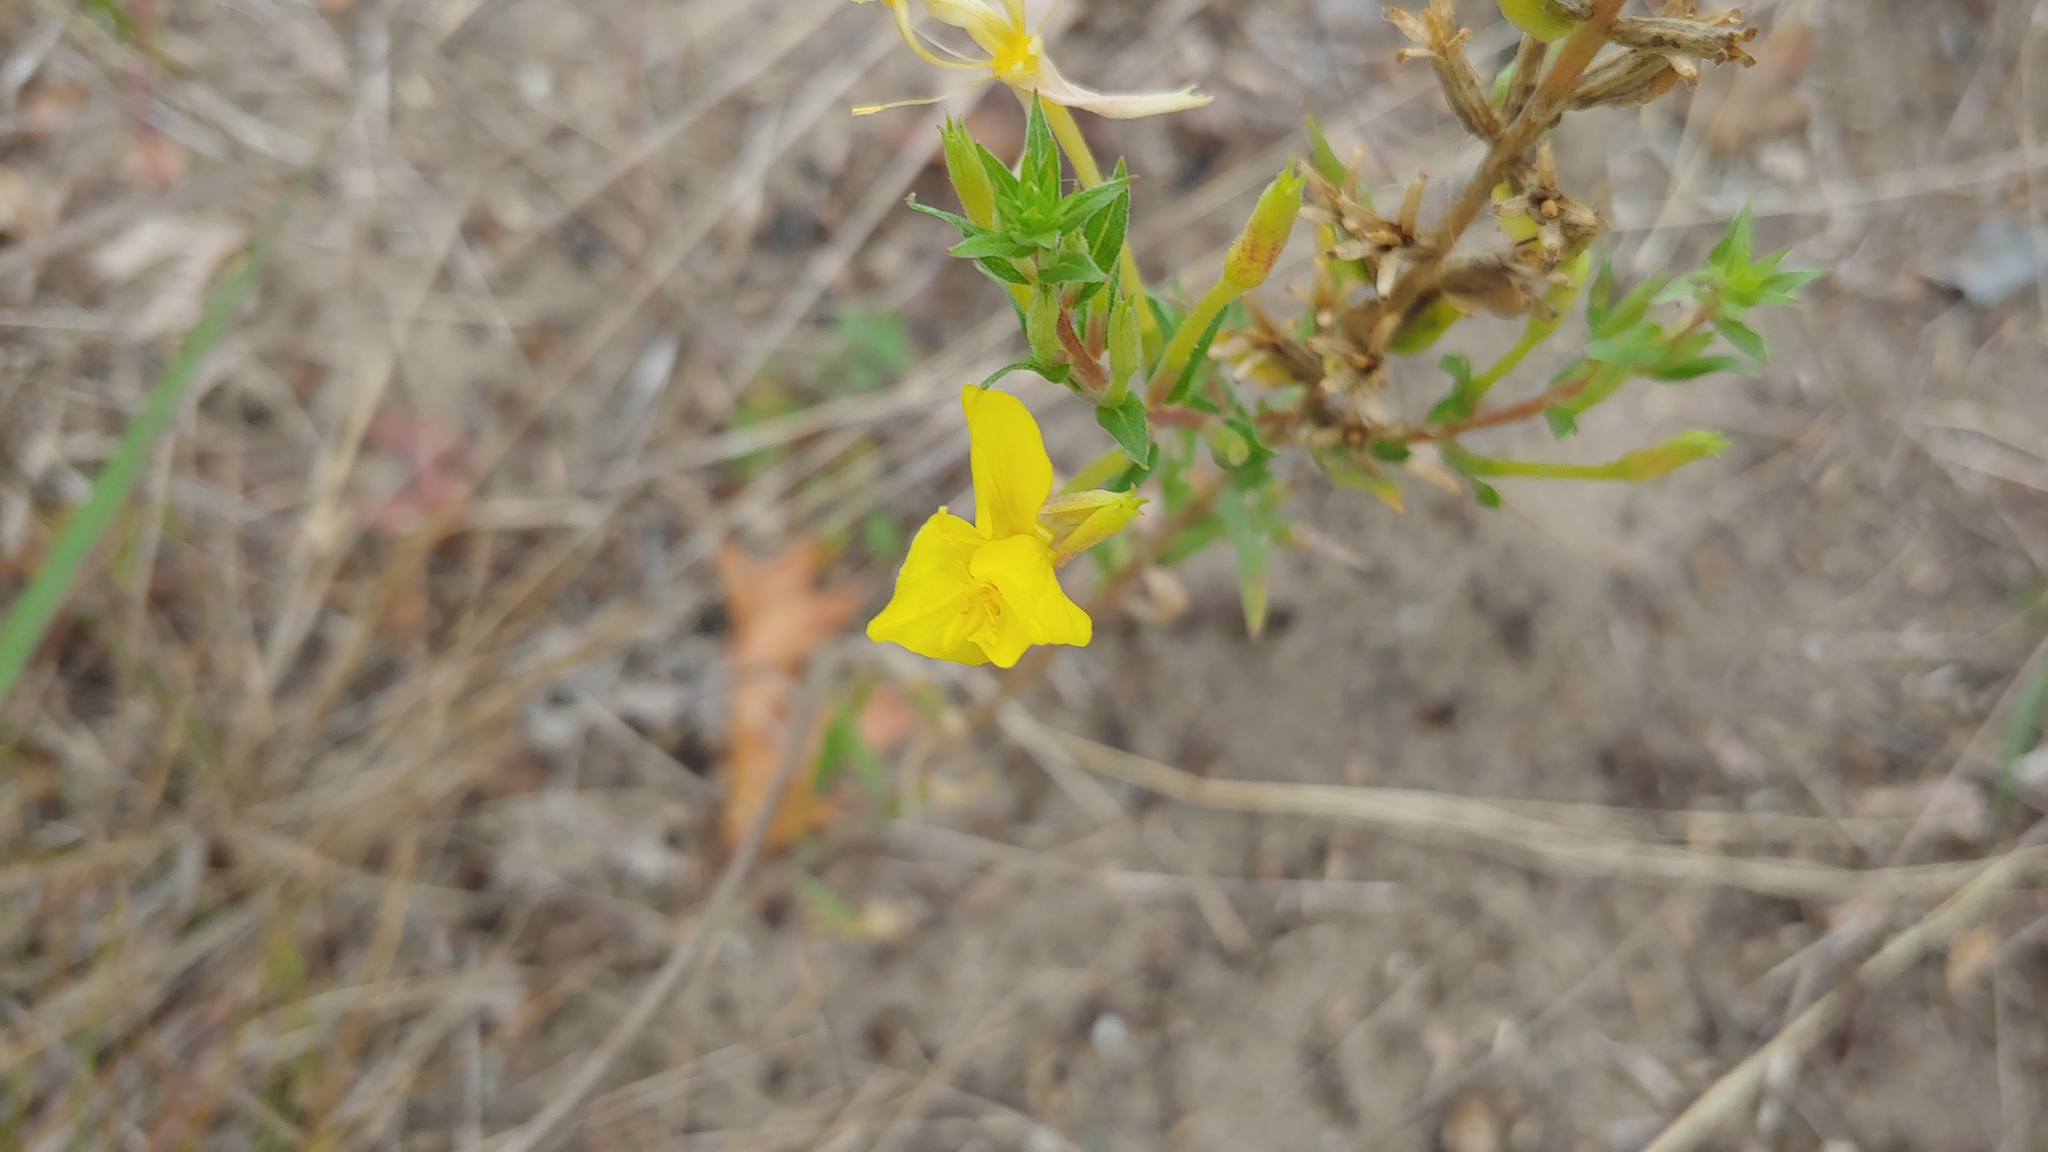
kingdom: Plantae
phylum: Tracheophyta
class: Magnoliopsida
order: Myrtales
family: Onagraceae
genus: Oenothera
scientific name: Oenothera clelandii
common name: Cleland's evening-primrose
